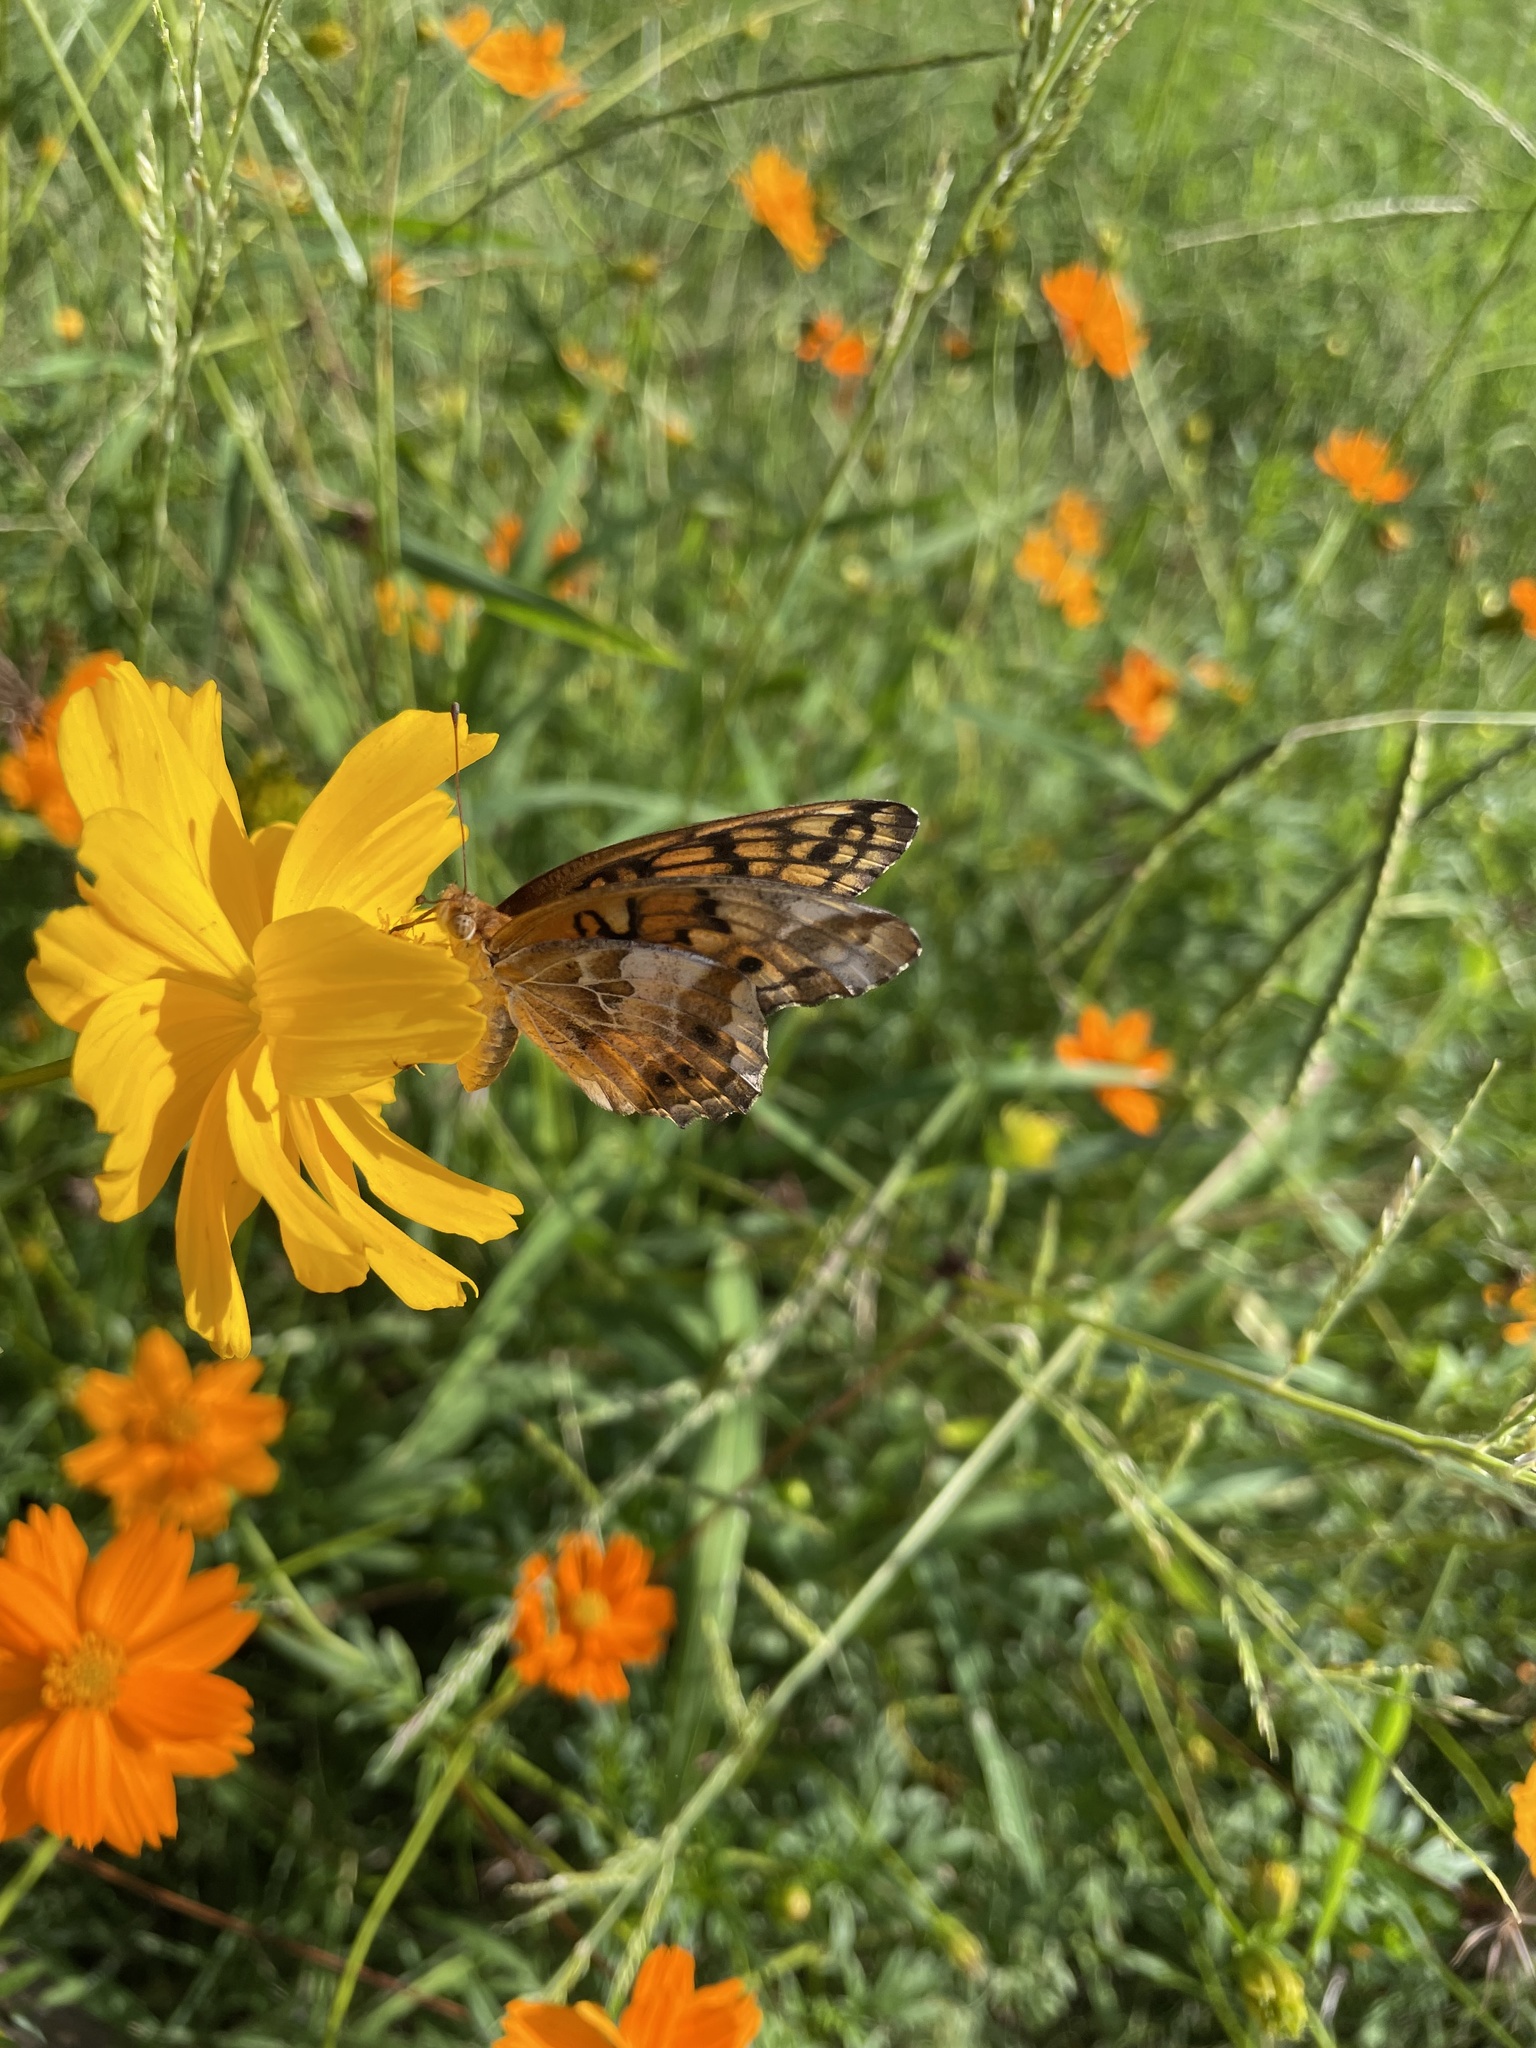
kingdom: Animalia
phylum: Arthropoda
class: Insecta
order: Lepidoptera
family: Nymphalidae
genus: Euptoieta
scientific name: Euptoieta claudia
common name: Variegated fritillary
